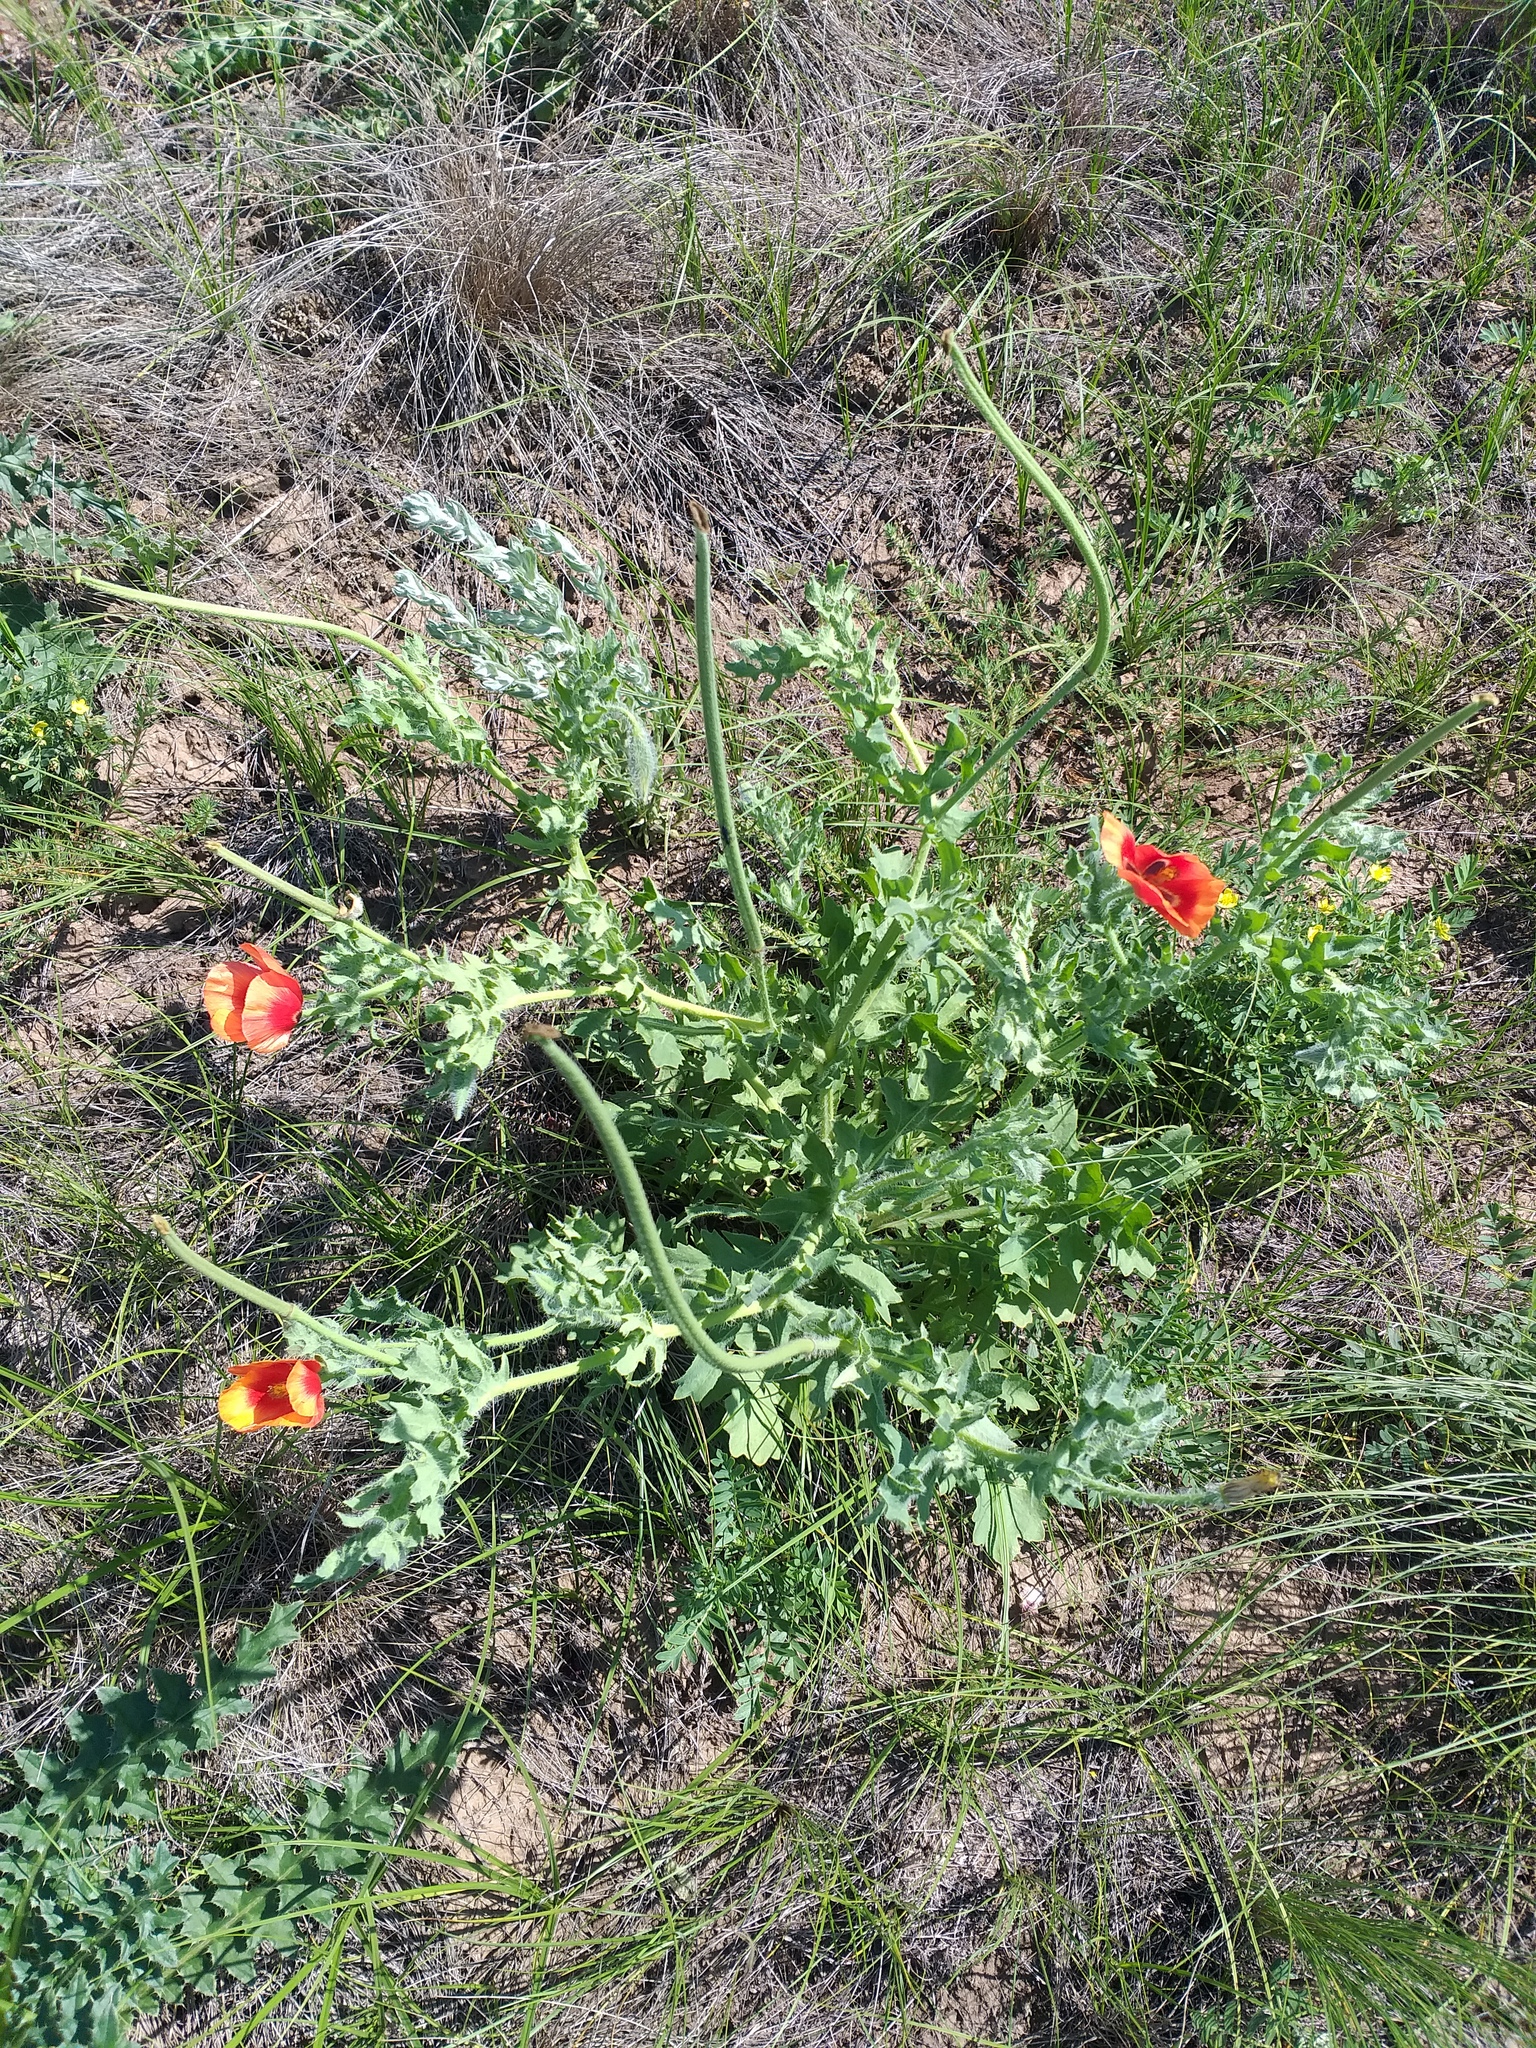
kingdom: Plantae
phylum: Tracheophyta
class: Magnoliopsida
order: Ranunculales
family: Papaveraceae
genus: Glaucium
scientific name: Glaucium corniculatum
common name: Red horned-poppy
